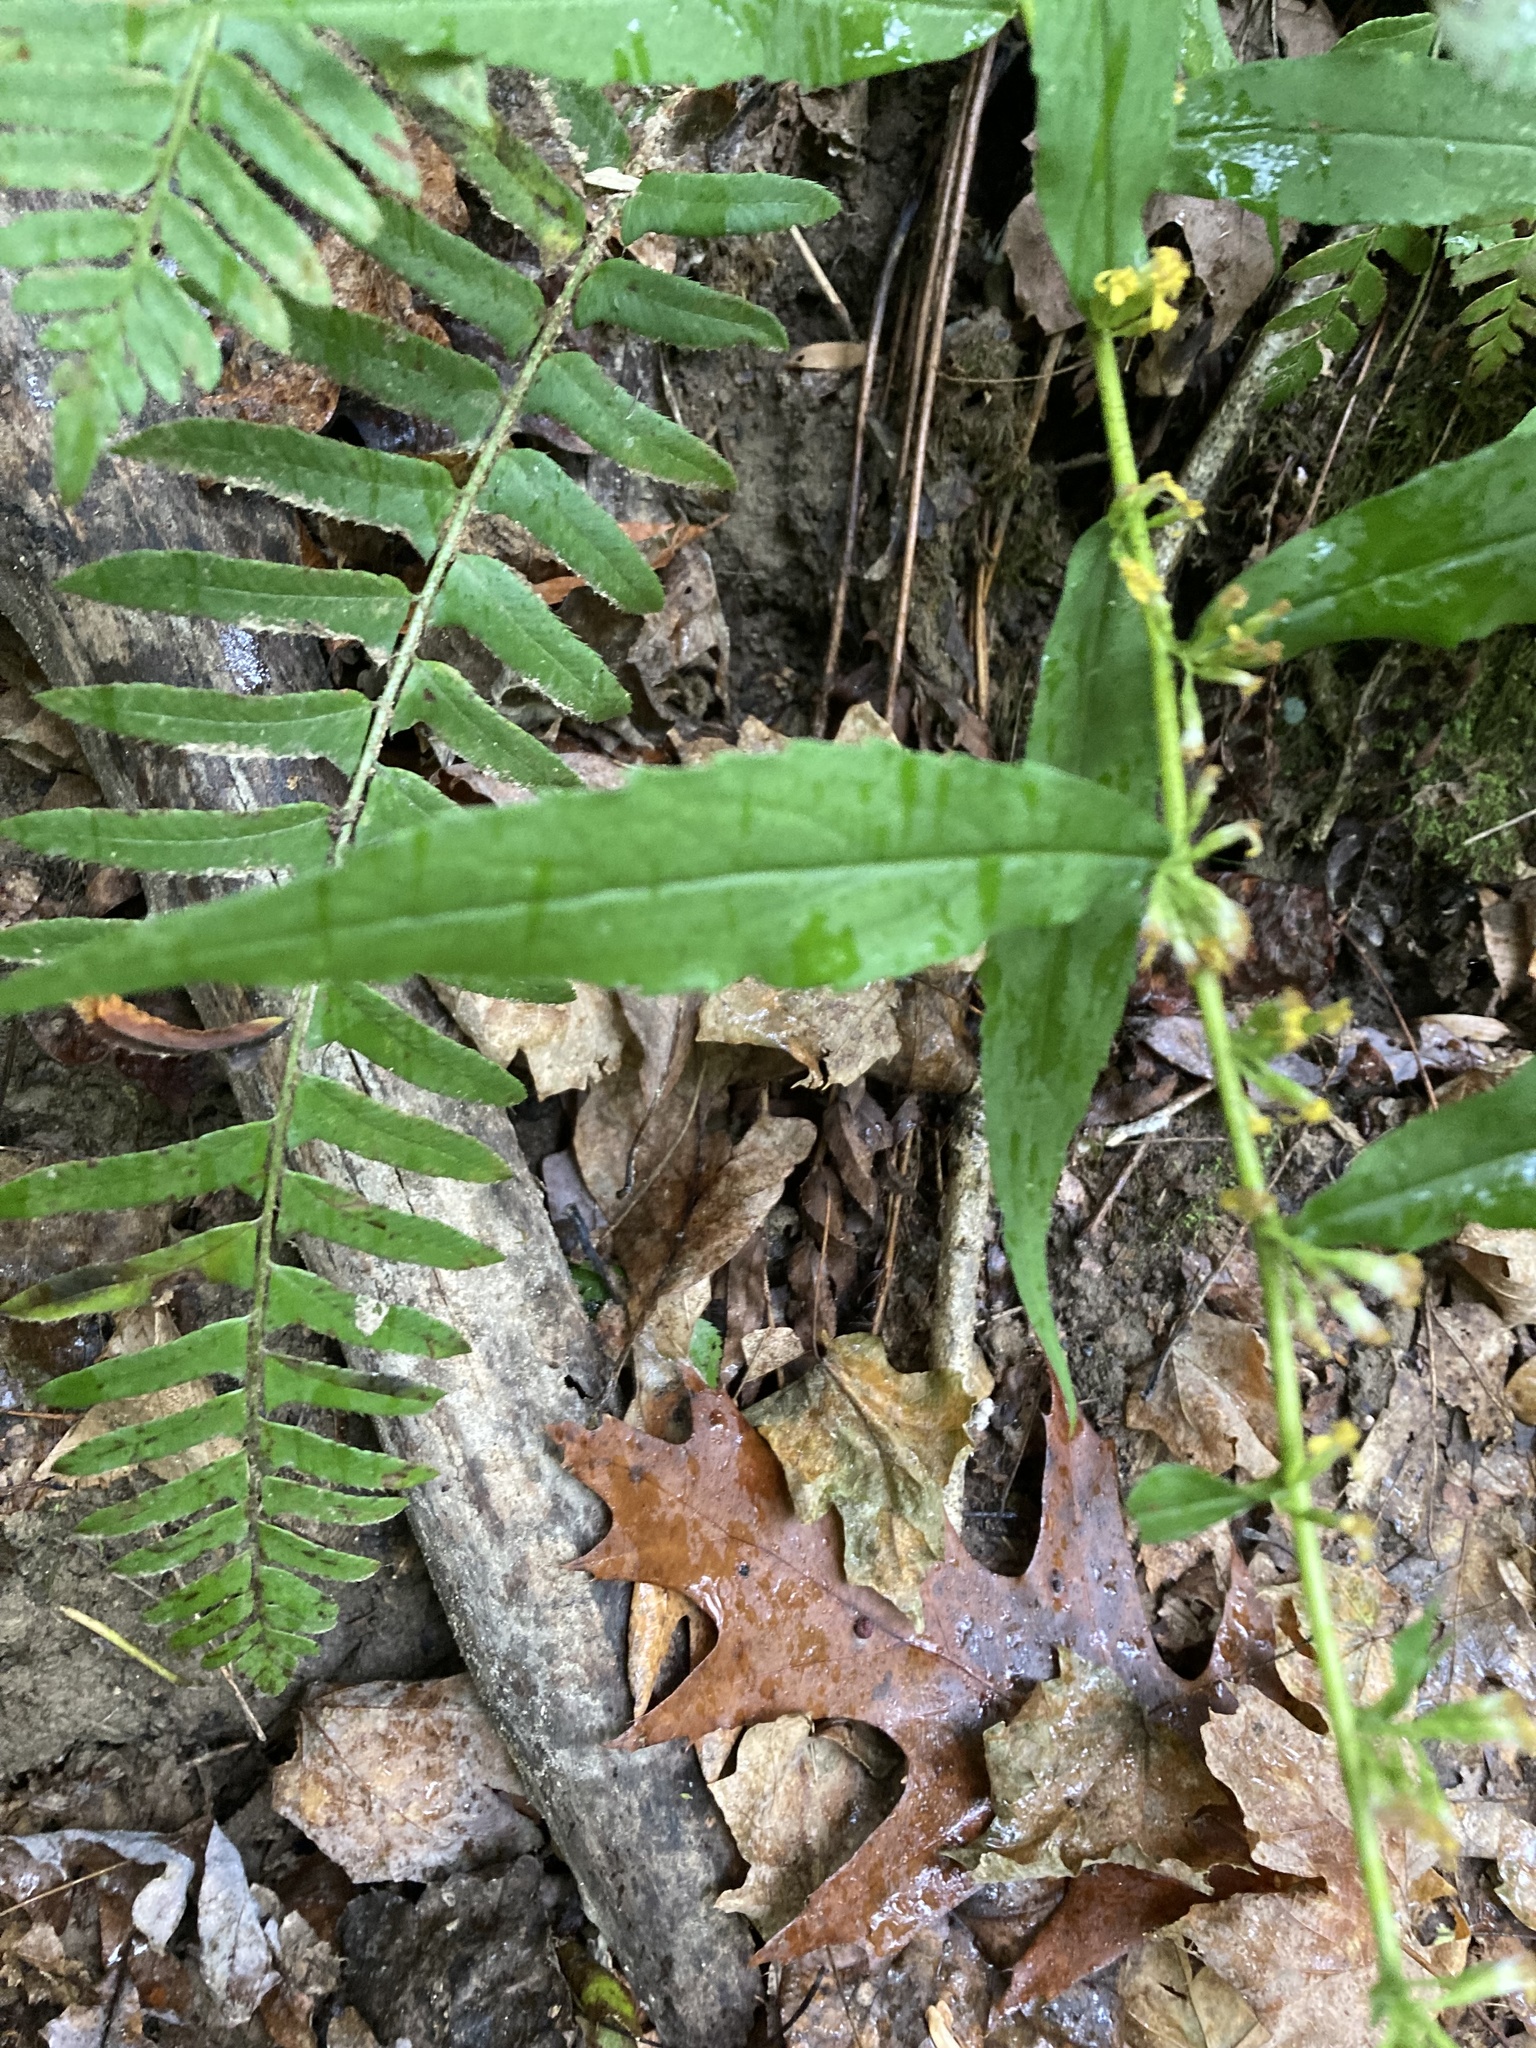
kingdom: Plantae
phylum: Tracheophyta
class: Magnoliopsida
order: Asterales
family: Asteraceae
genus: Solidago
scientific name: Solidago caesia
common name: Woodland goldenrod
